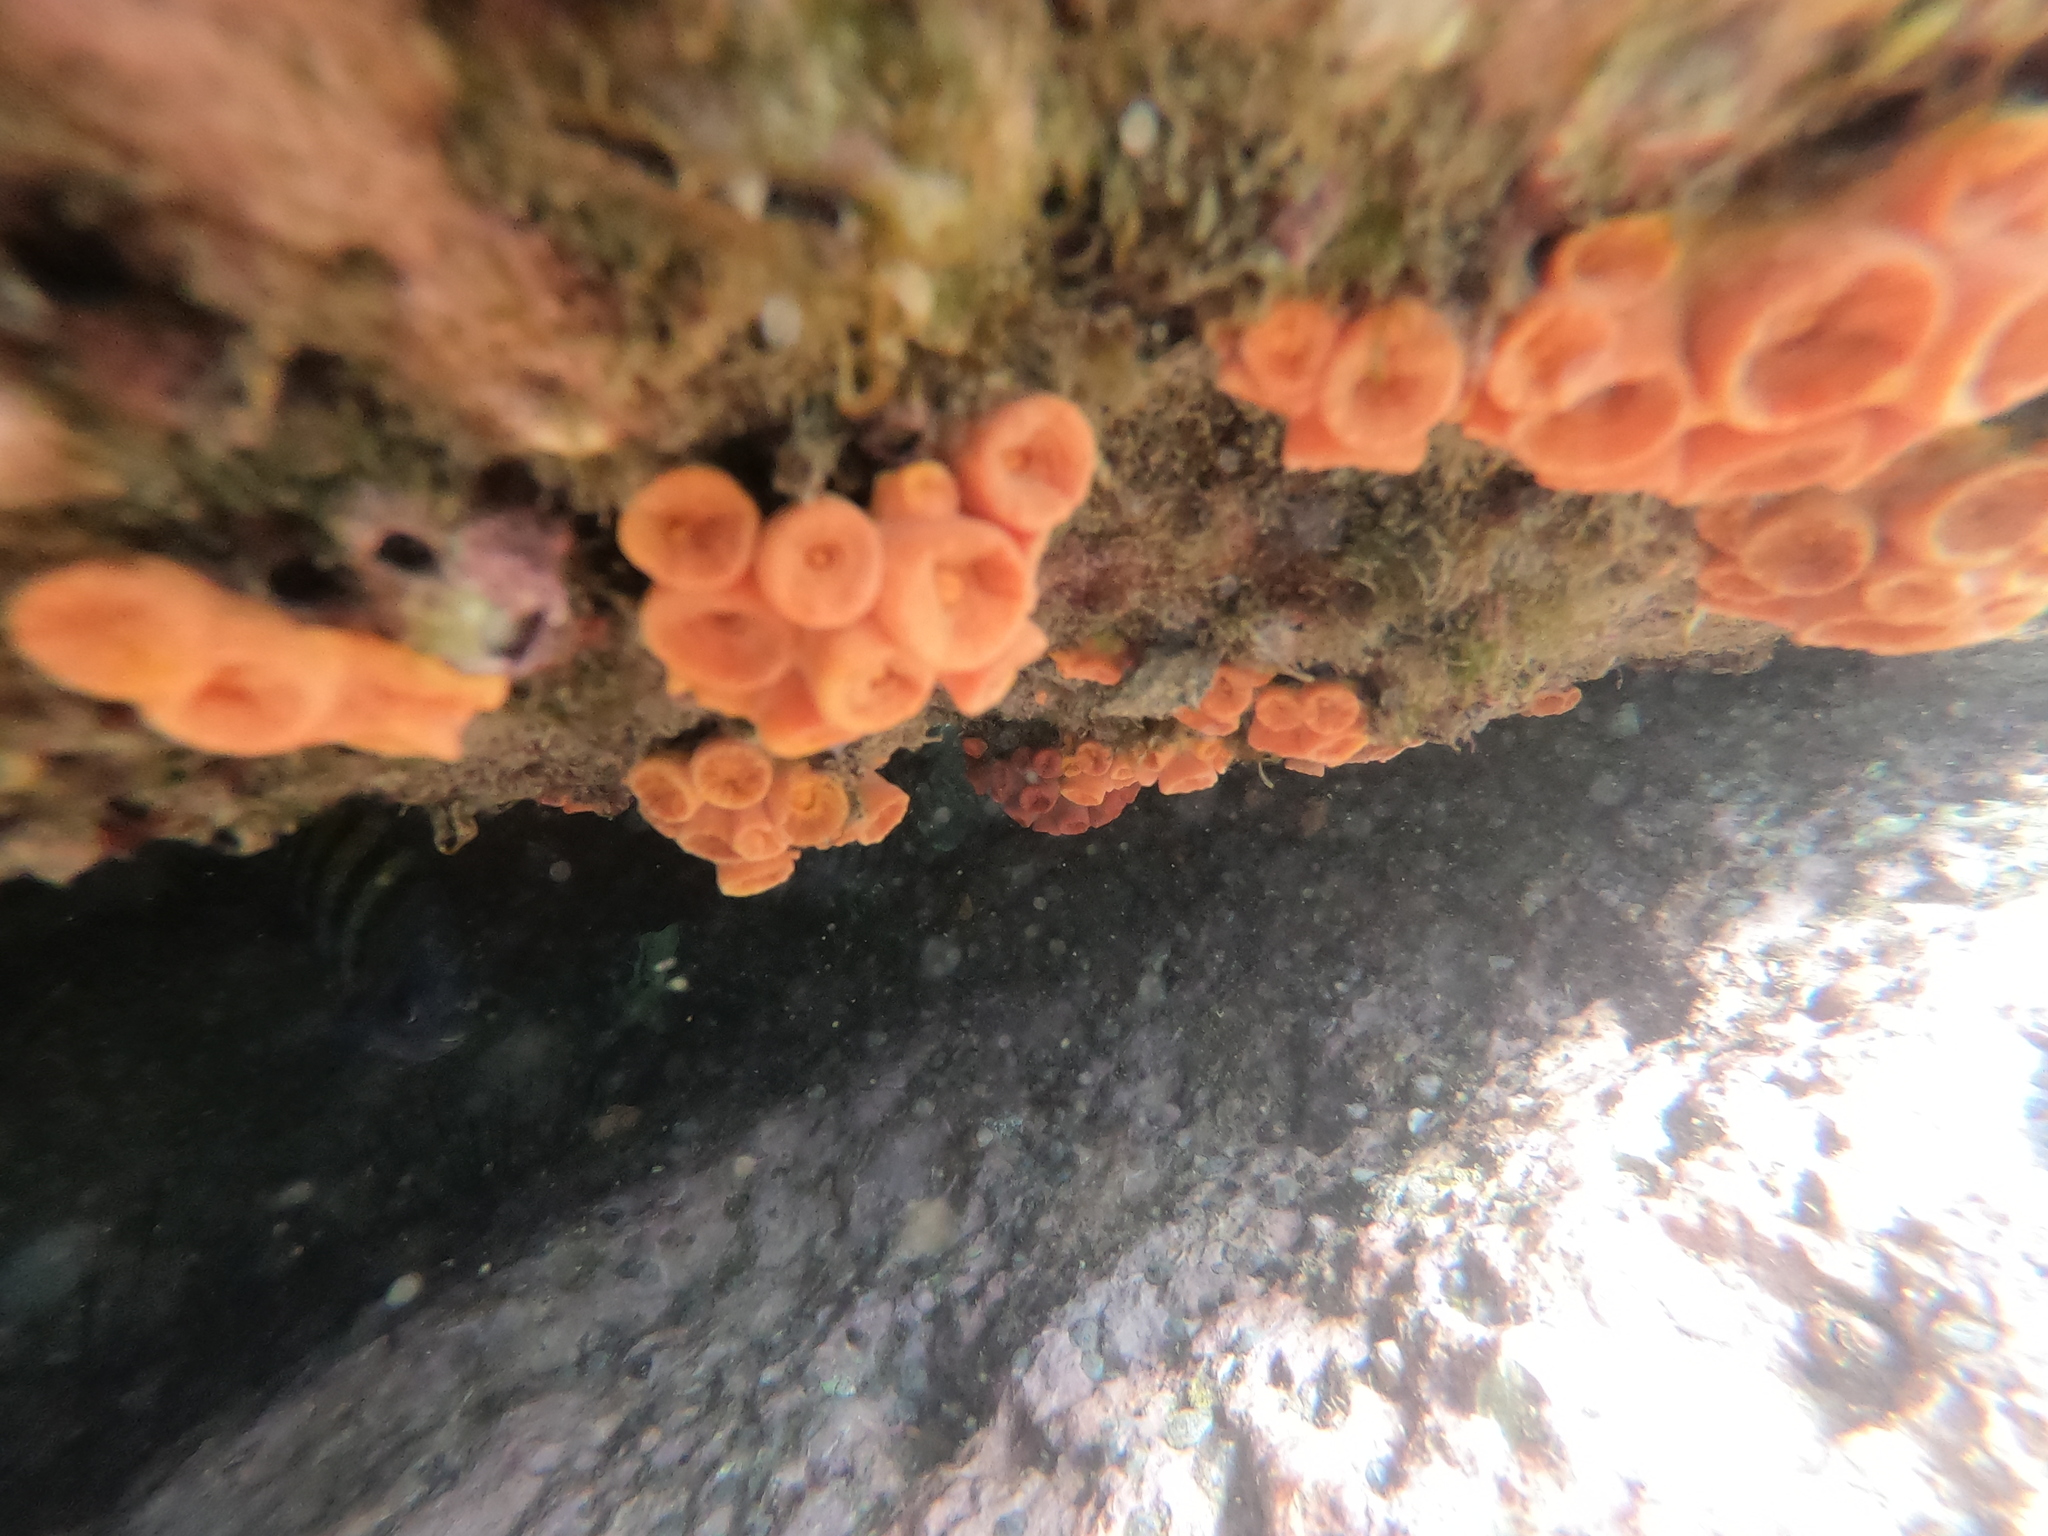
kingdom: Animalia
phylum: Cnidaria
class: Anthozoa
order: Scleractinia
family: Dendrophylliidae
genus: Tubastraea
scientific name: Tubastraea coccinea
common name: Orange cup coral
